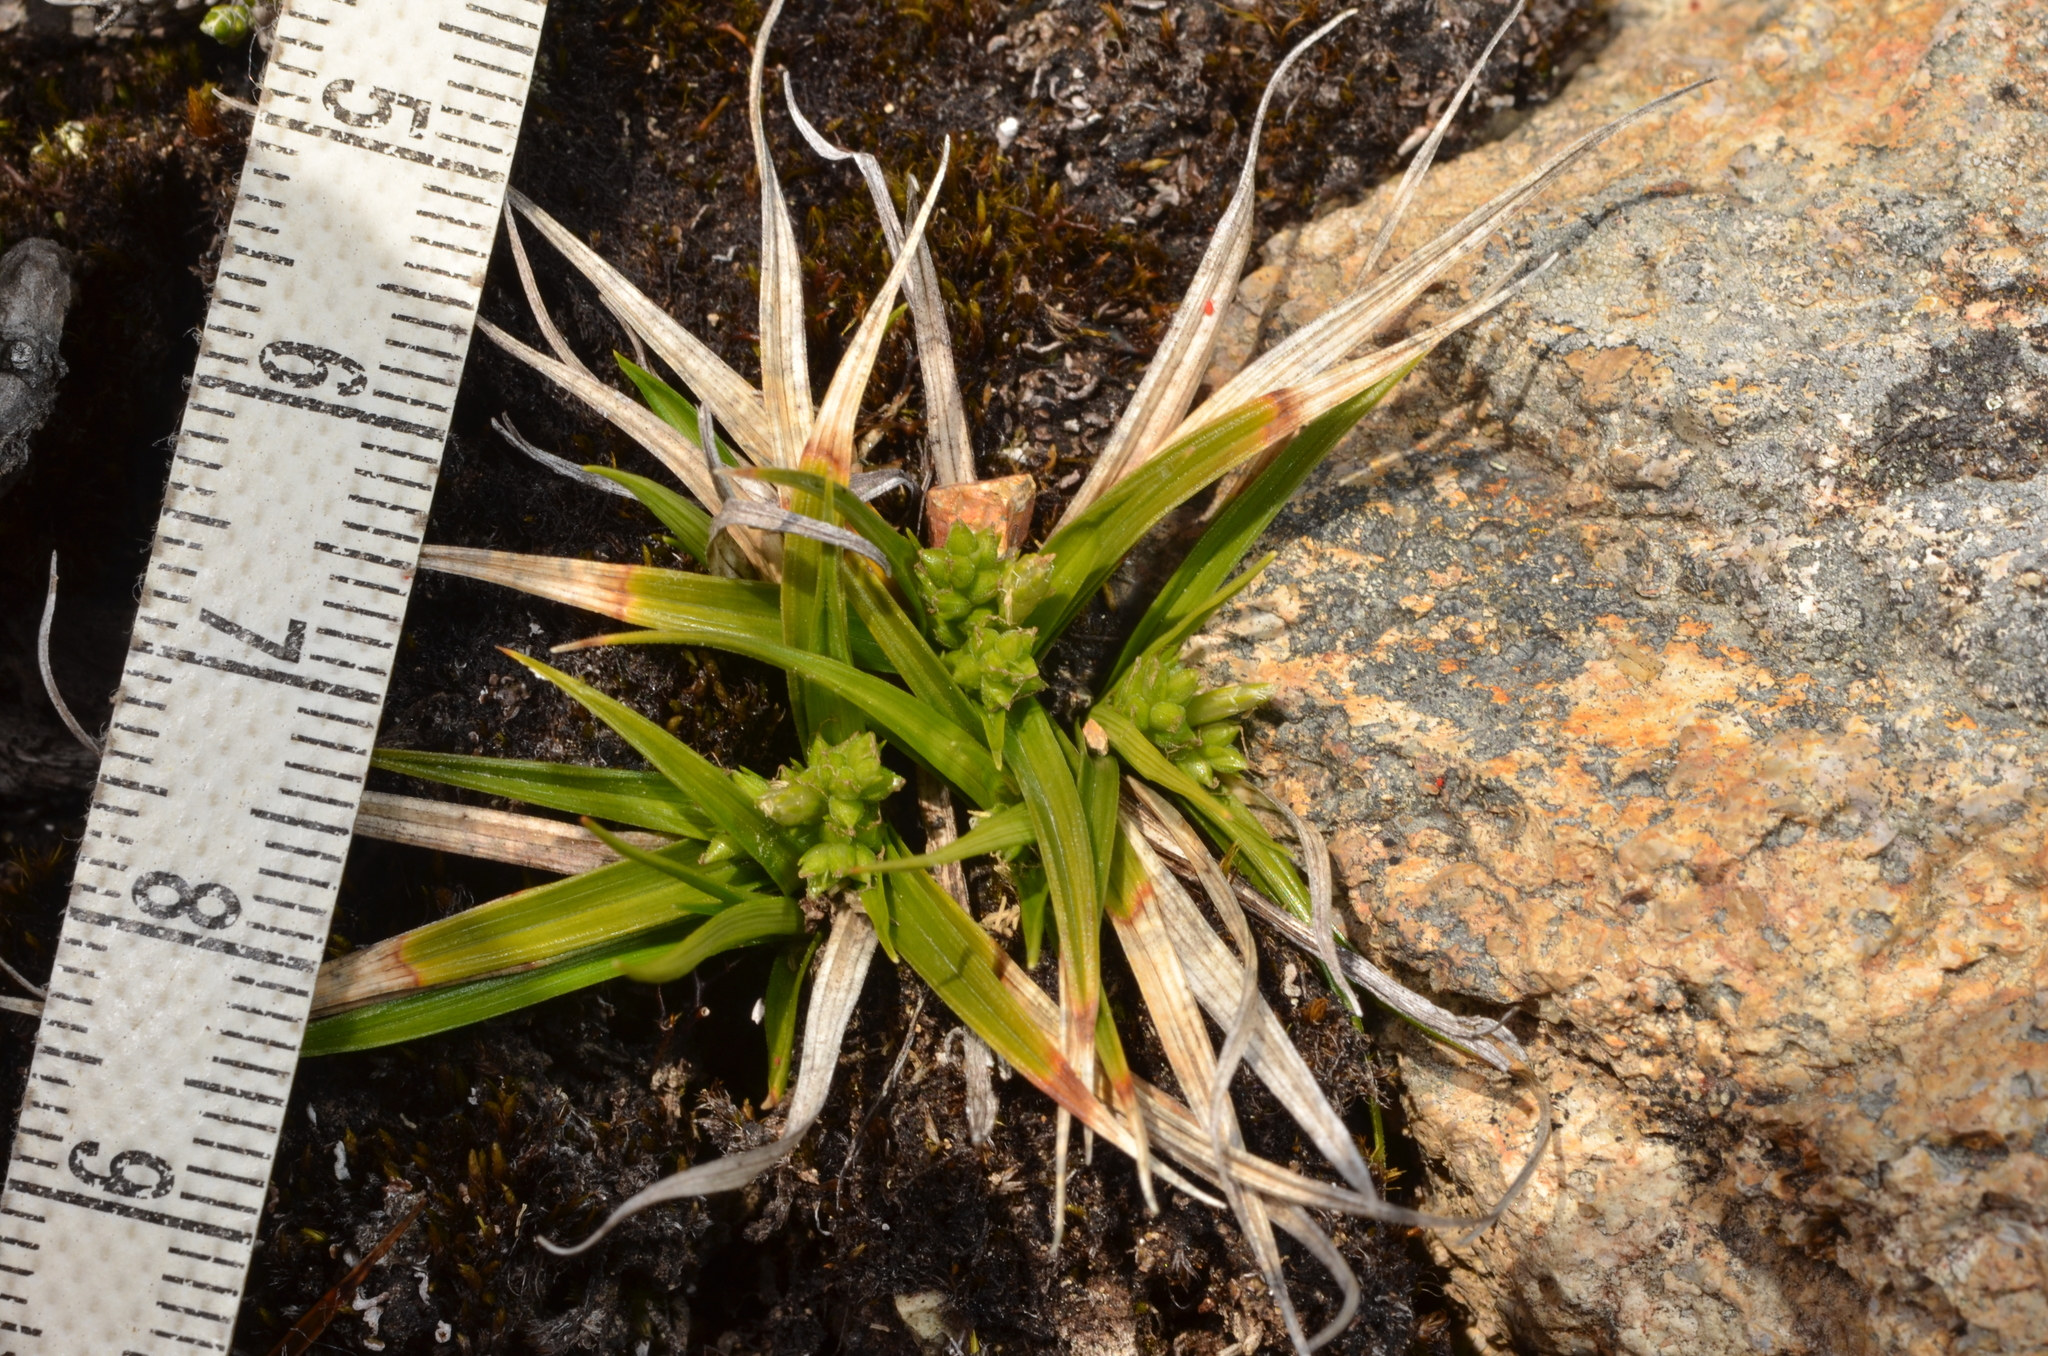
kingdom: Plantae
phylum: Tracheophyta
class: Liliopsida
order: Poales
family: Cyperaceae
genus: Carex
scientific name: Carex breviculmis
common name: Asian shortstem sedge
